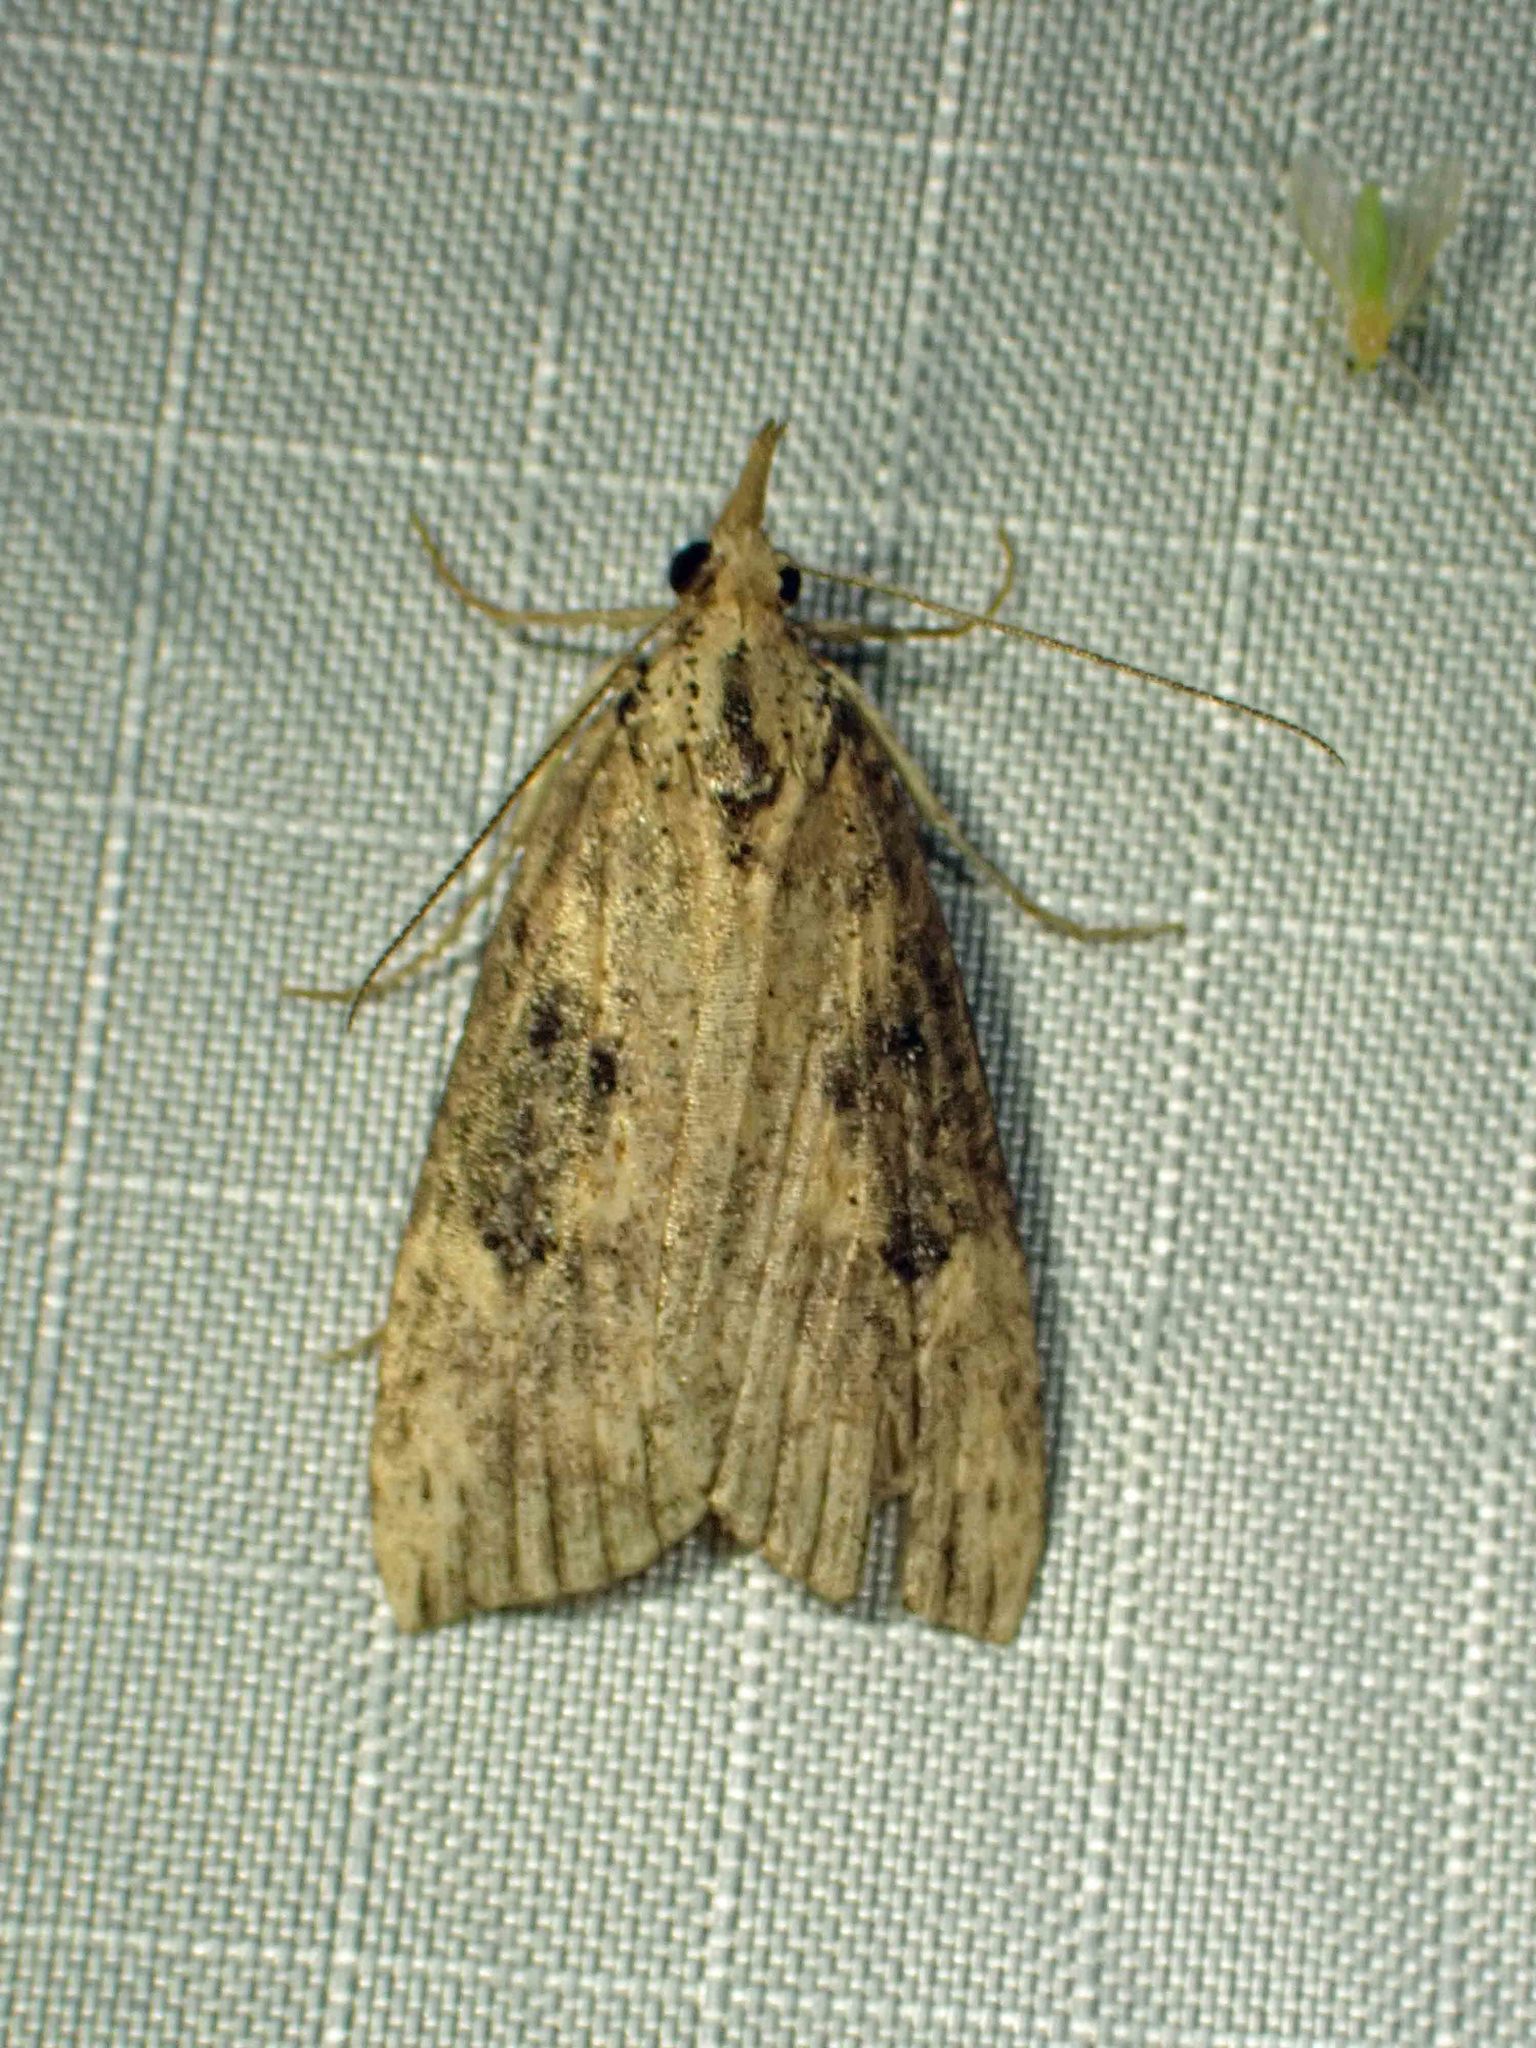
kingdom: Animalia
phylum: Arthropoda
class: Insecta
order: Lepidoptera
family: Erebidae
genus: Hypena
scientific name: Hypena humuli
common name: Hop vine snout
